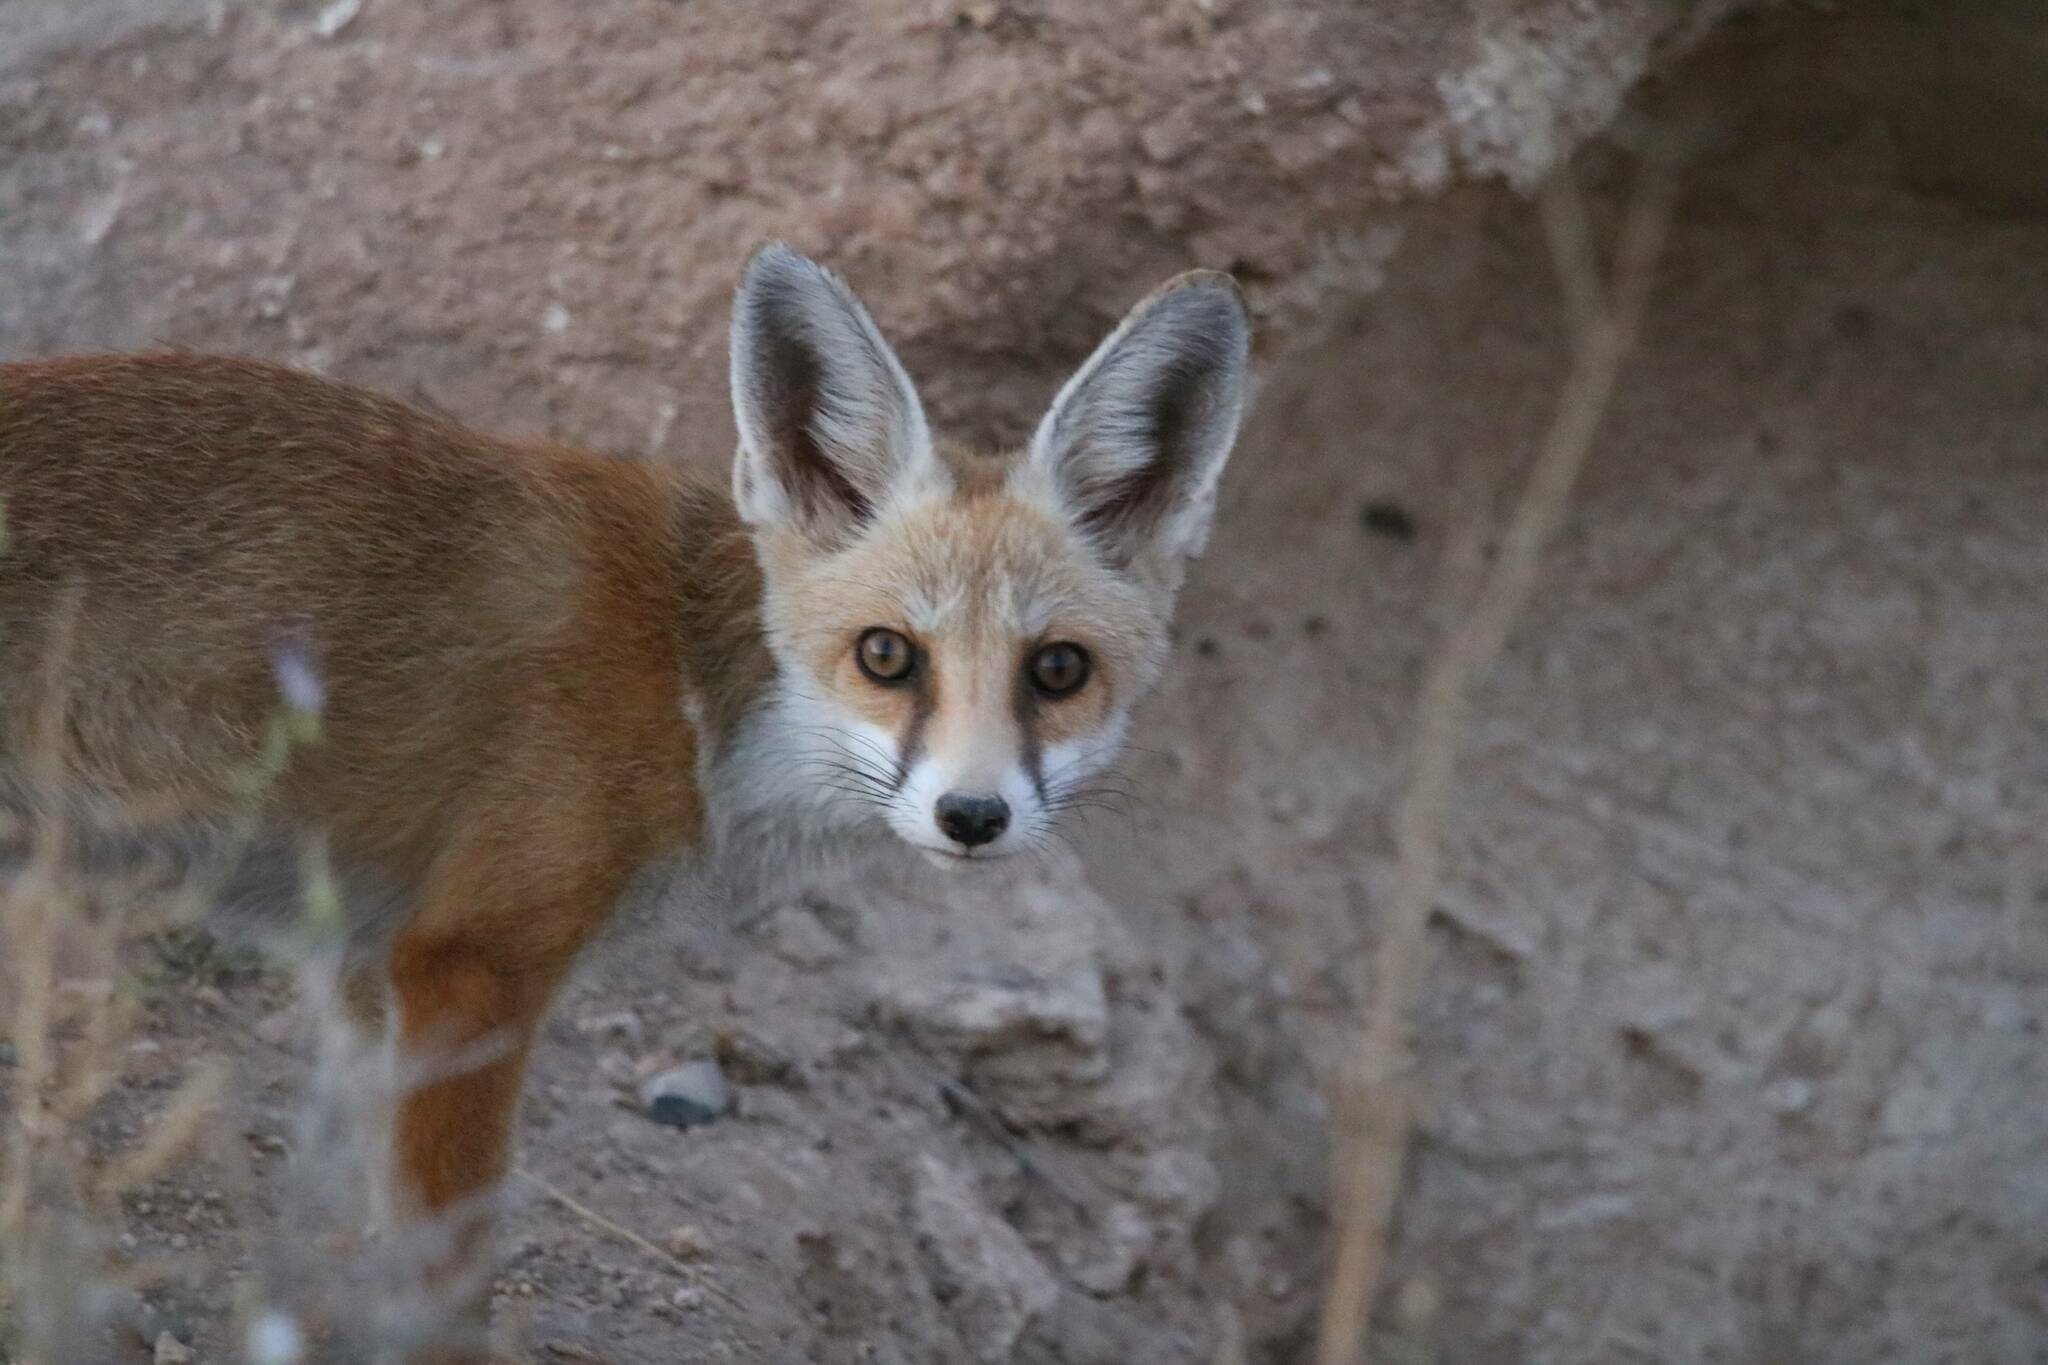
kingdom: Animalia
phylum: Chordata
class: Mammalia
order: Carnivora
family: Canidae
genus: Vulpes
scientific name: Vulpes vulpes
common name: Red fox
